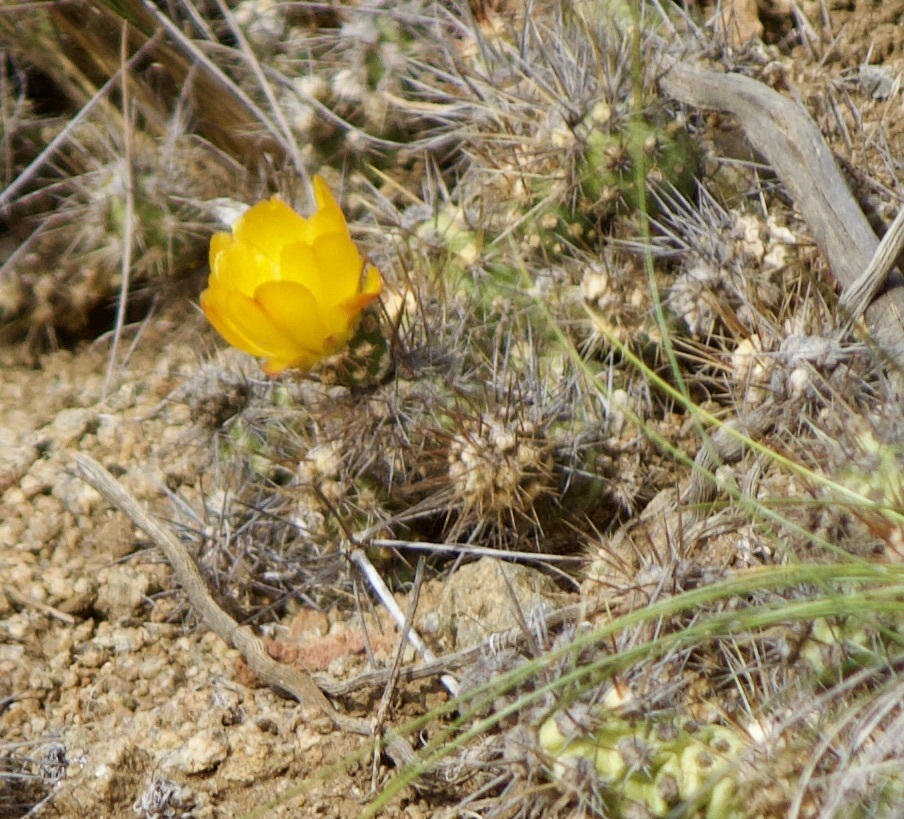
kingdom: Plantae
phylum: Tracheophyta
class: Magnoliopsida
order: Caryophyllales
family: Cactaceae
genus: Cumulopuntia
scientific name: Cumulopuntia leucophaea
